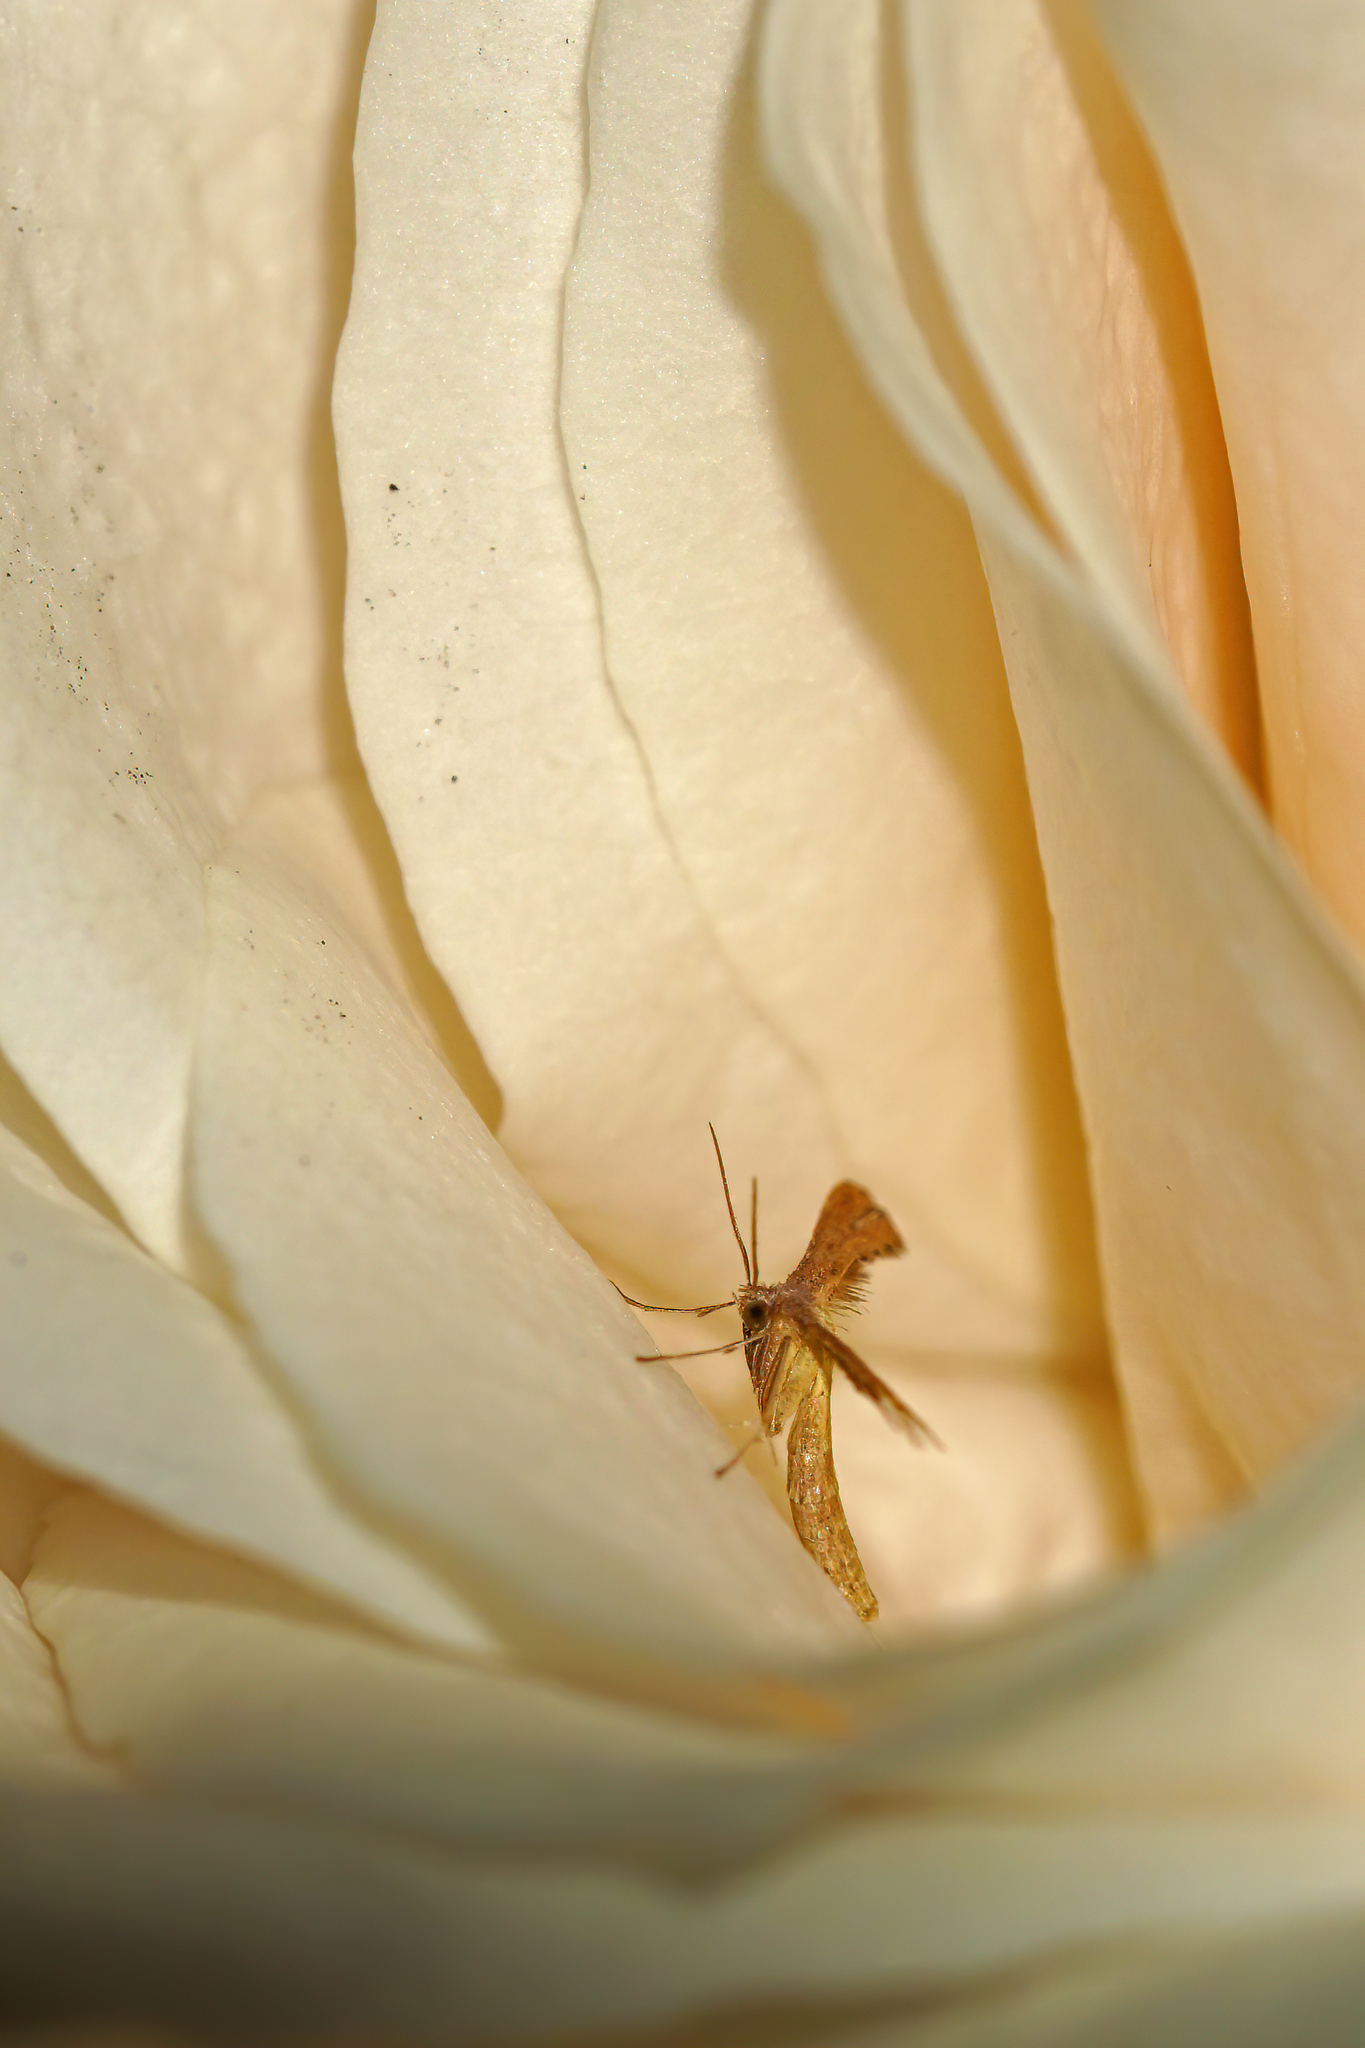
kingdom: Animalia
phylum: Arthropoda
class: Insecta
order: Lepidoptera
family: Pterophoridae
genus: Exelastis
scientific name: Exelastis pumilio
